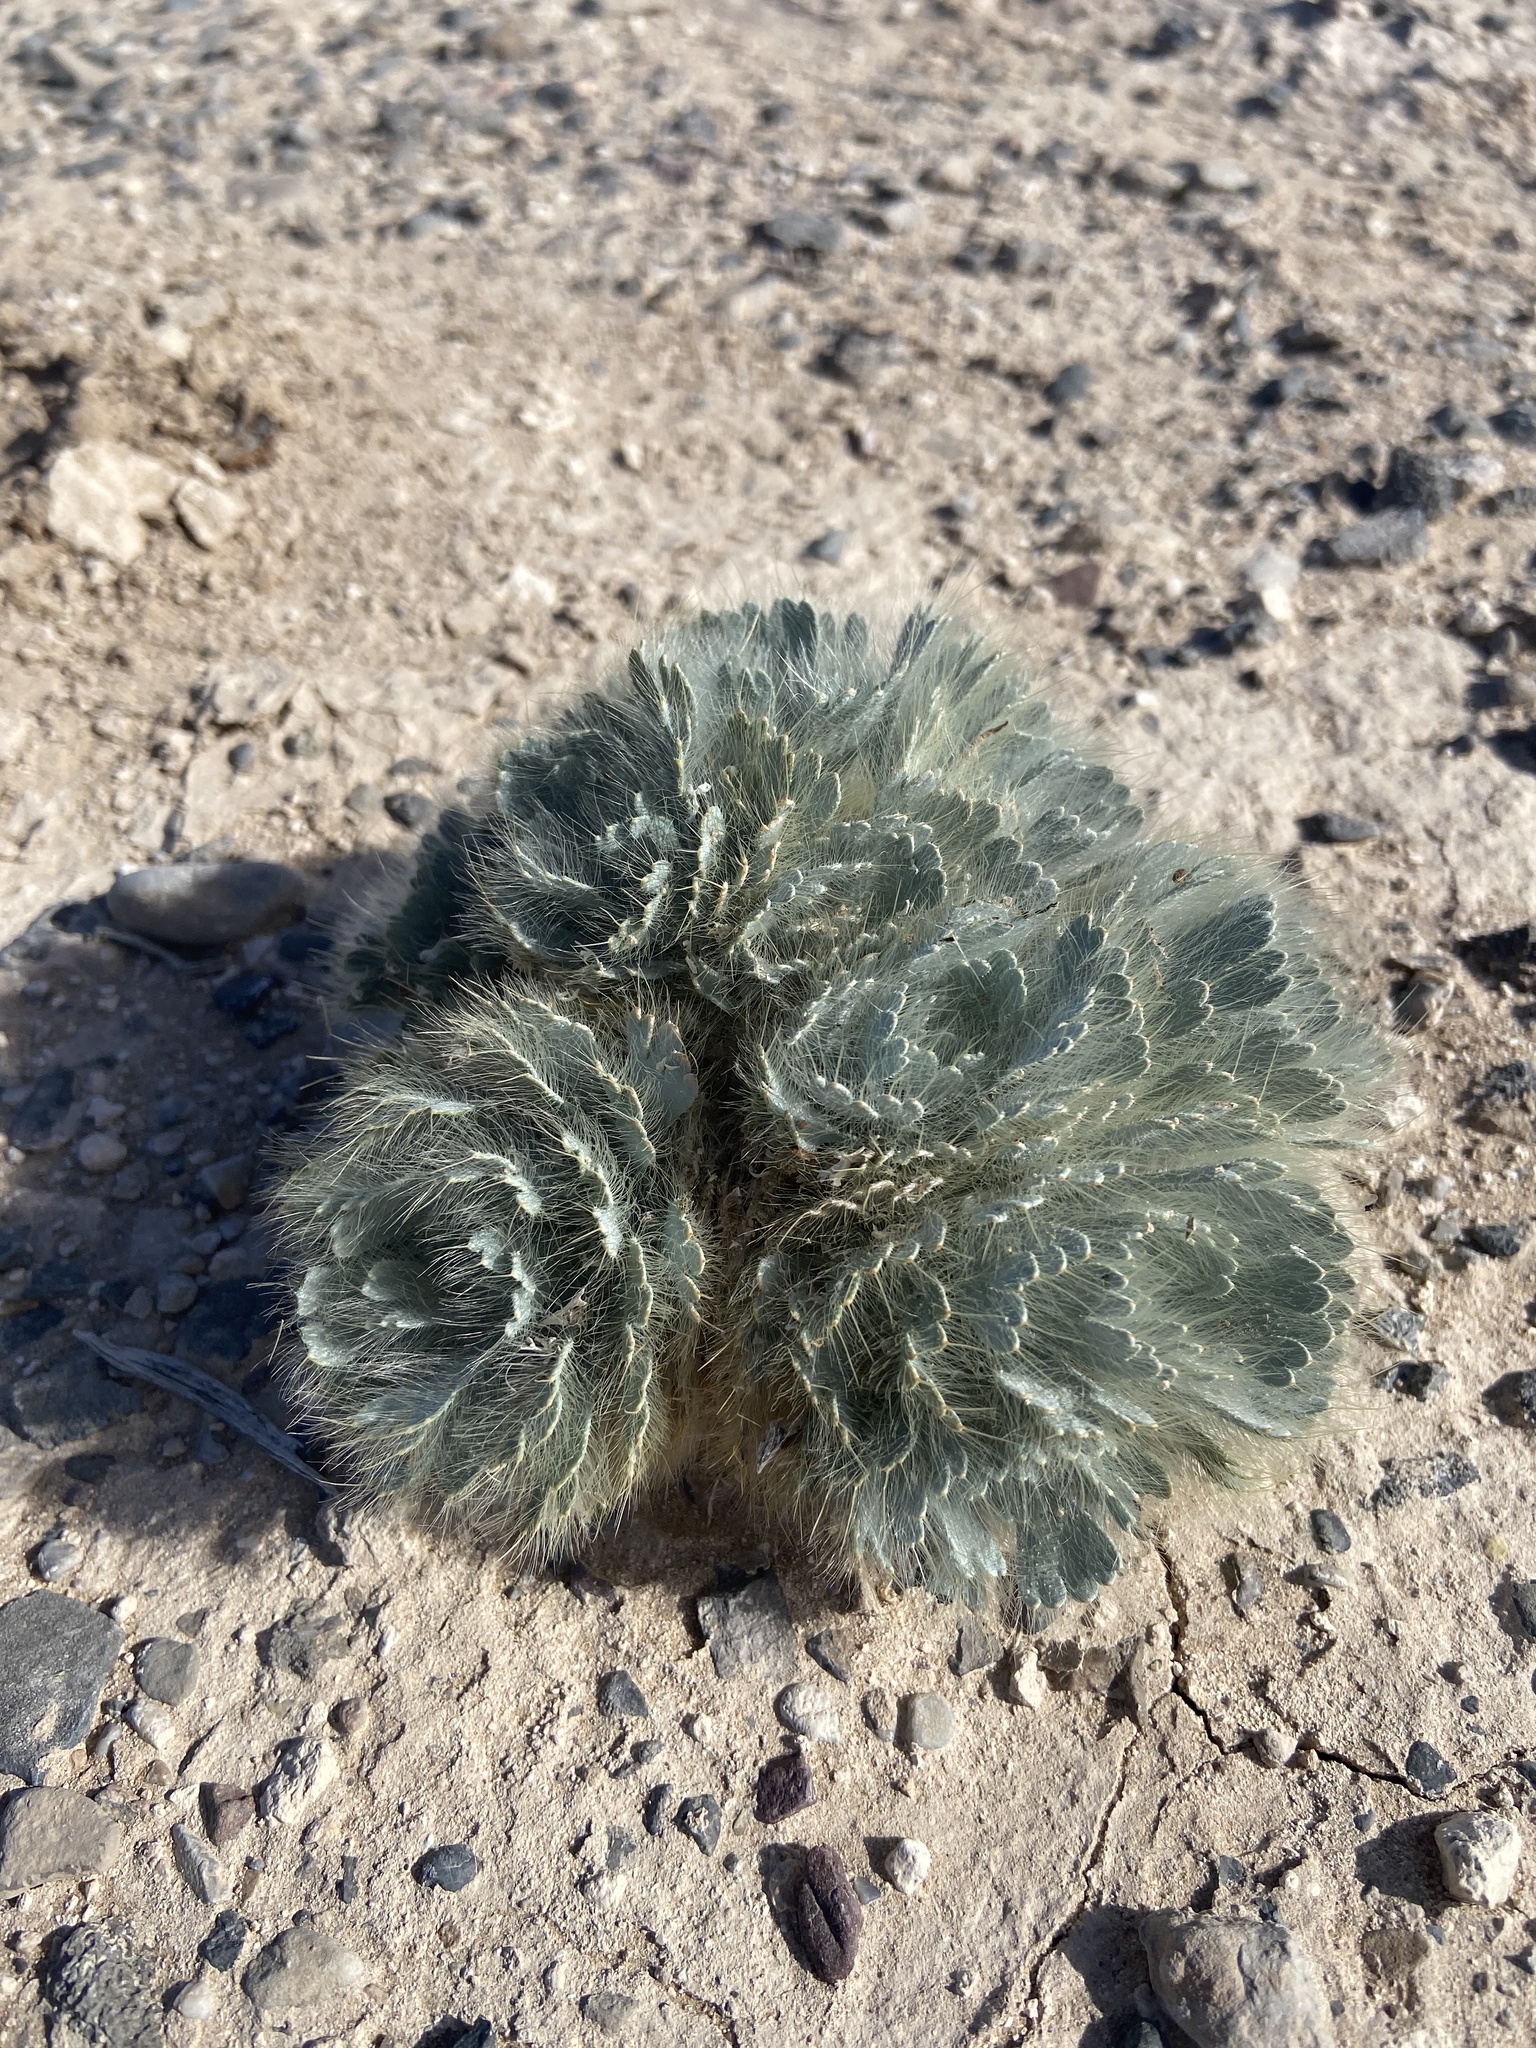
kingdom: Plantae
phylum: Tracheophyta
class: Magnoliopsida
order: Ranunculales
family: Papaveraceae
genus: Arctomecon
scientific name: Arctomecon californicum
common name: Golden bearclaw-poppy
